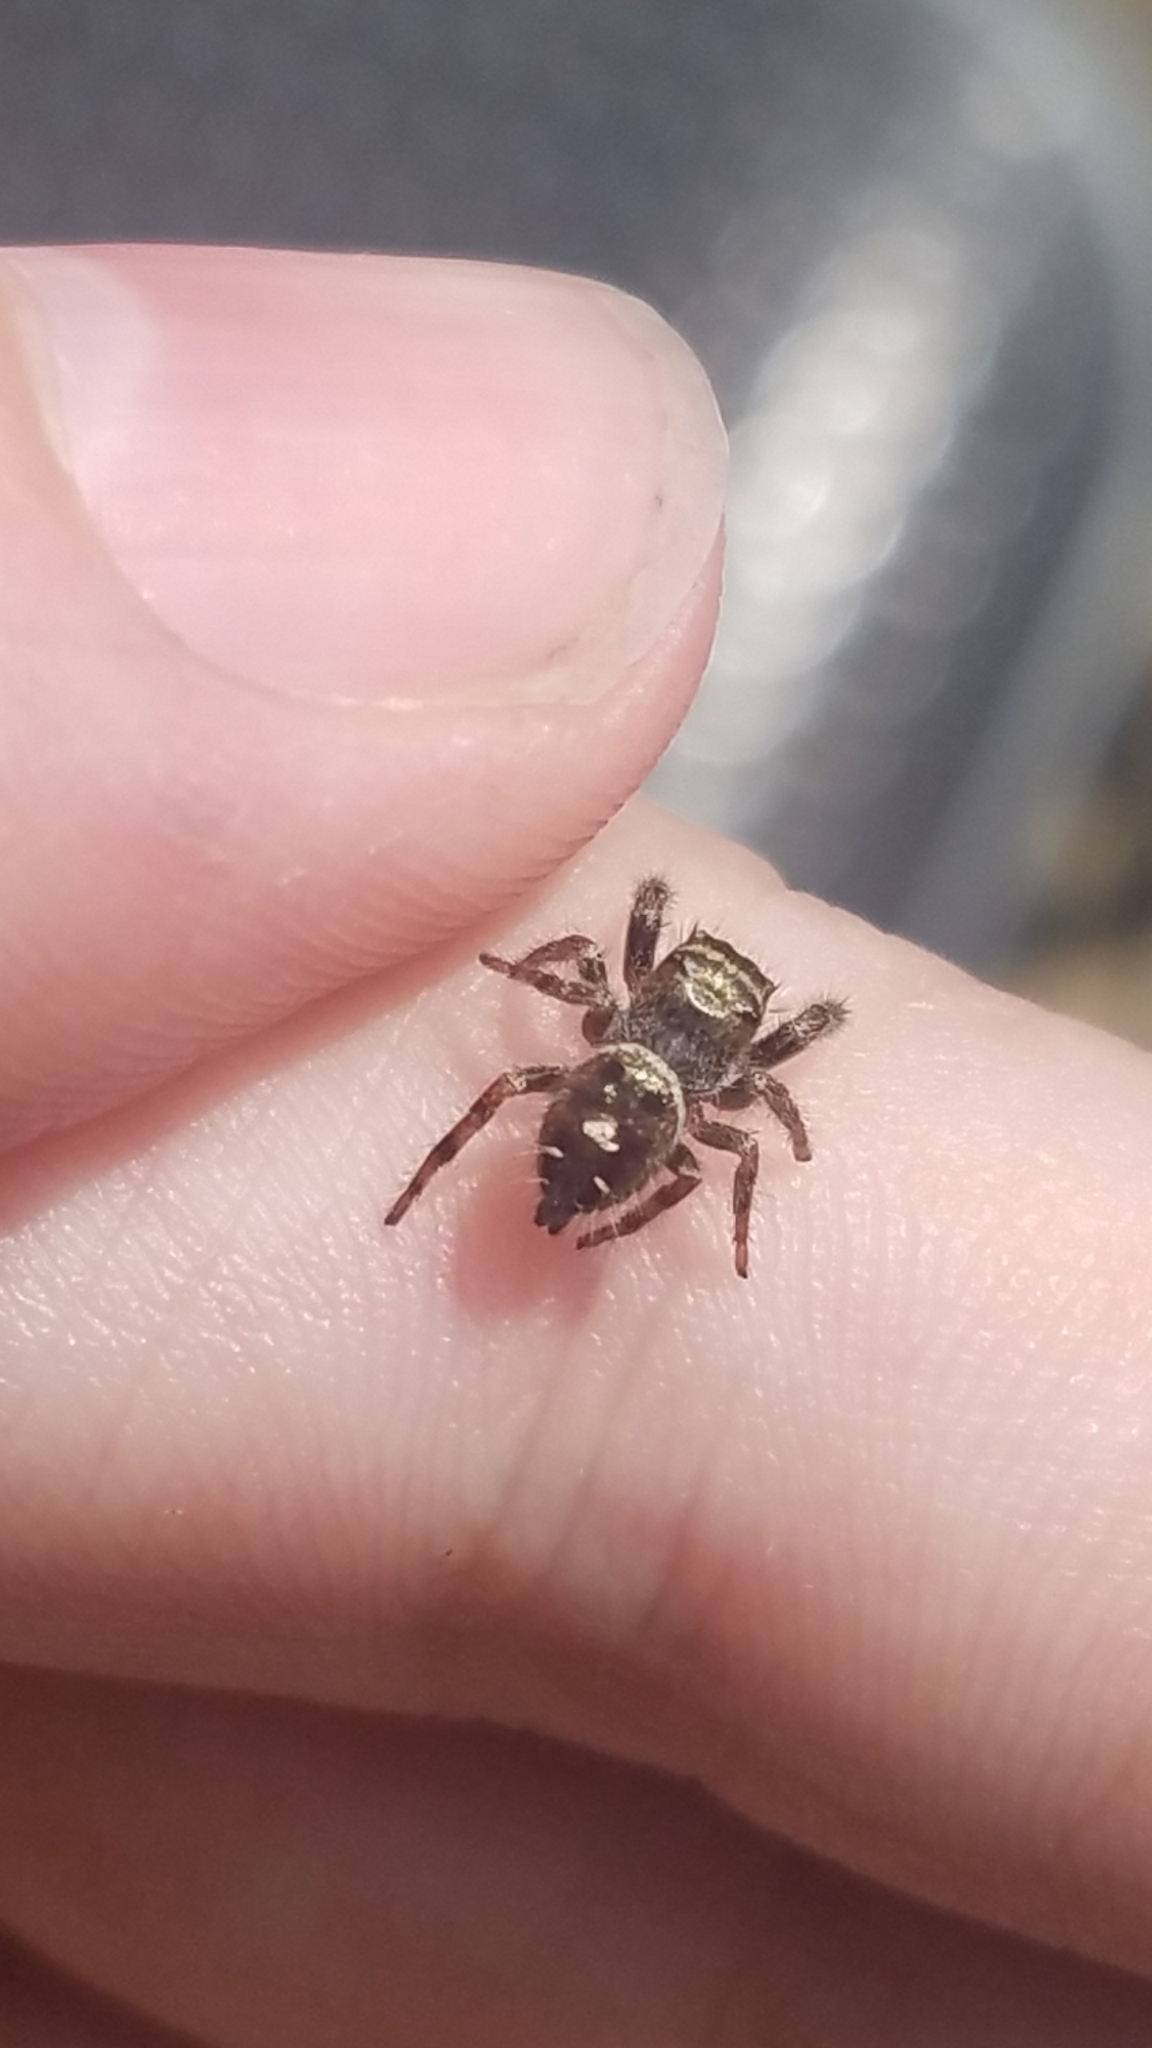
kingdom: Animalia
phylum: Arthropoda
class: Arachnida
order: Araneae
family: Salticidae
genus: Phidippus
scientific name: Phidippus audax
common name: Bold jumper
